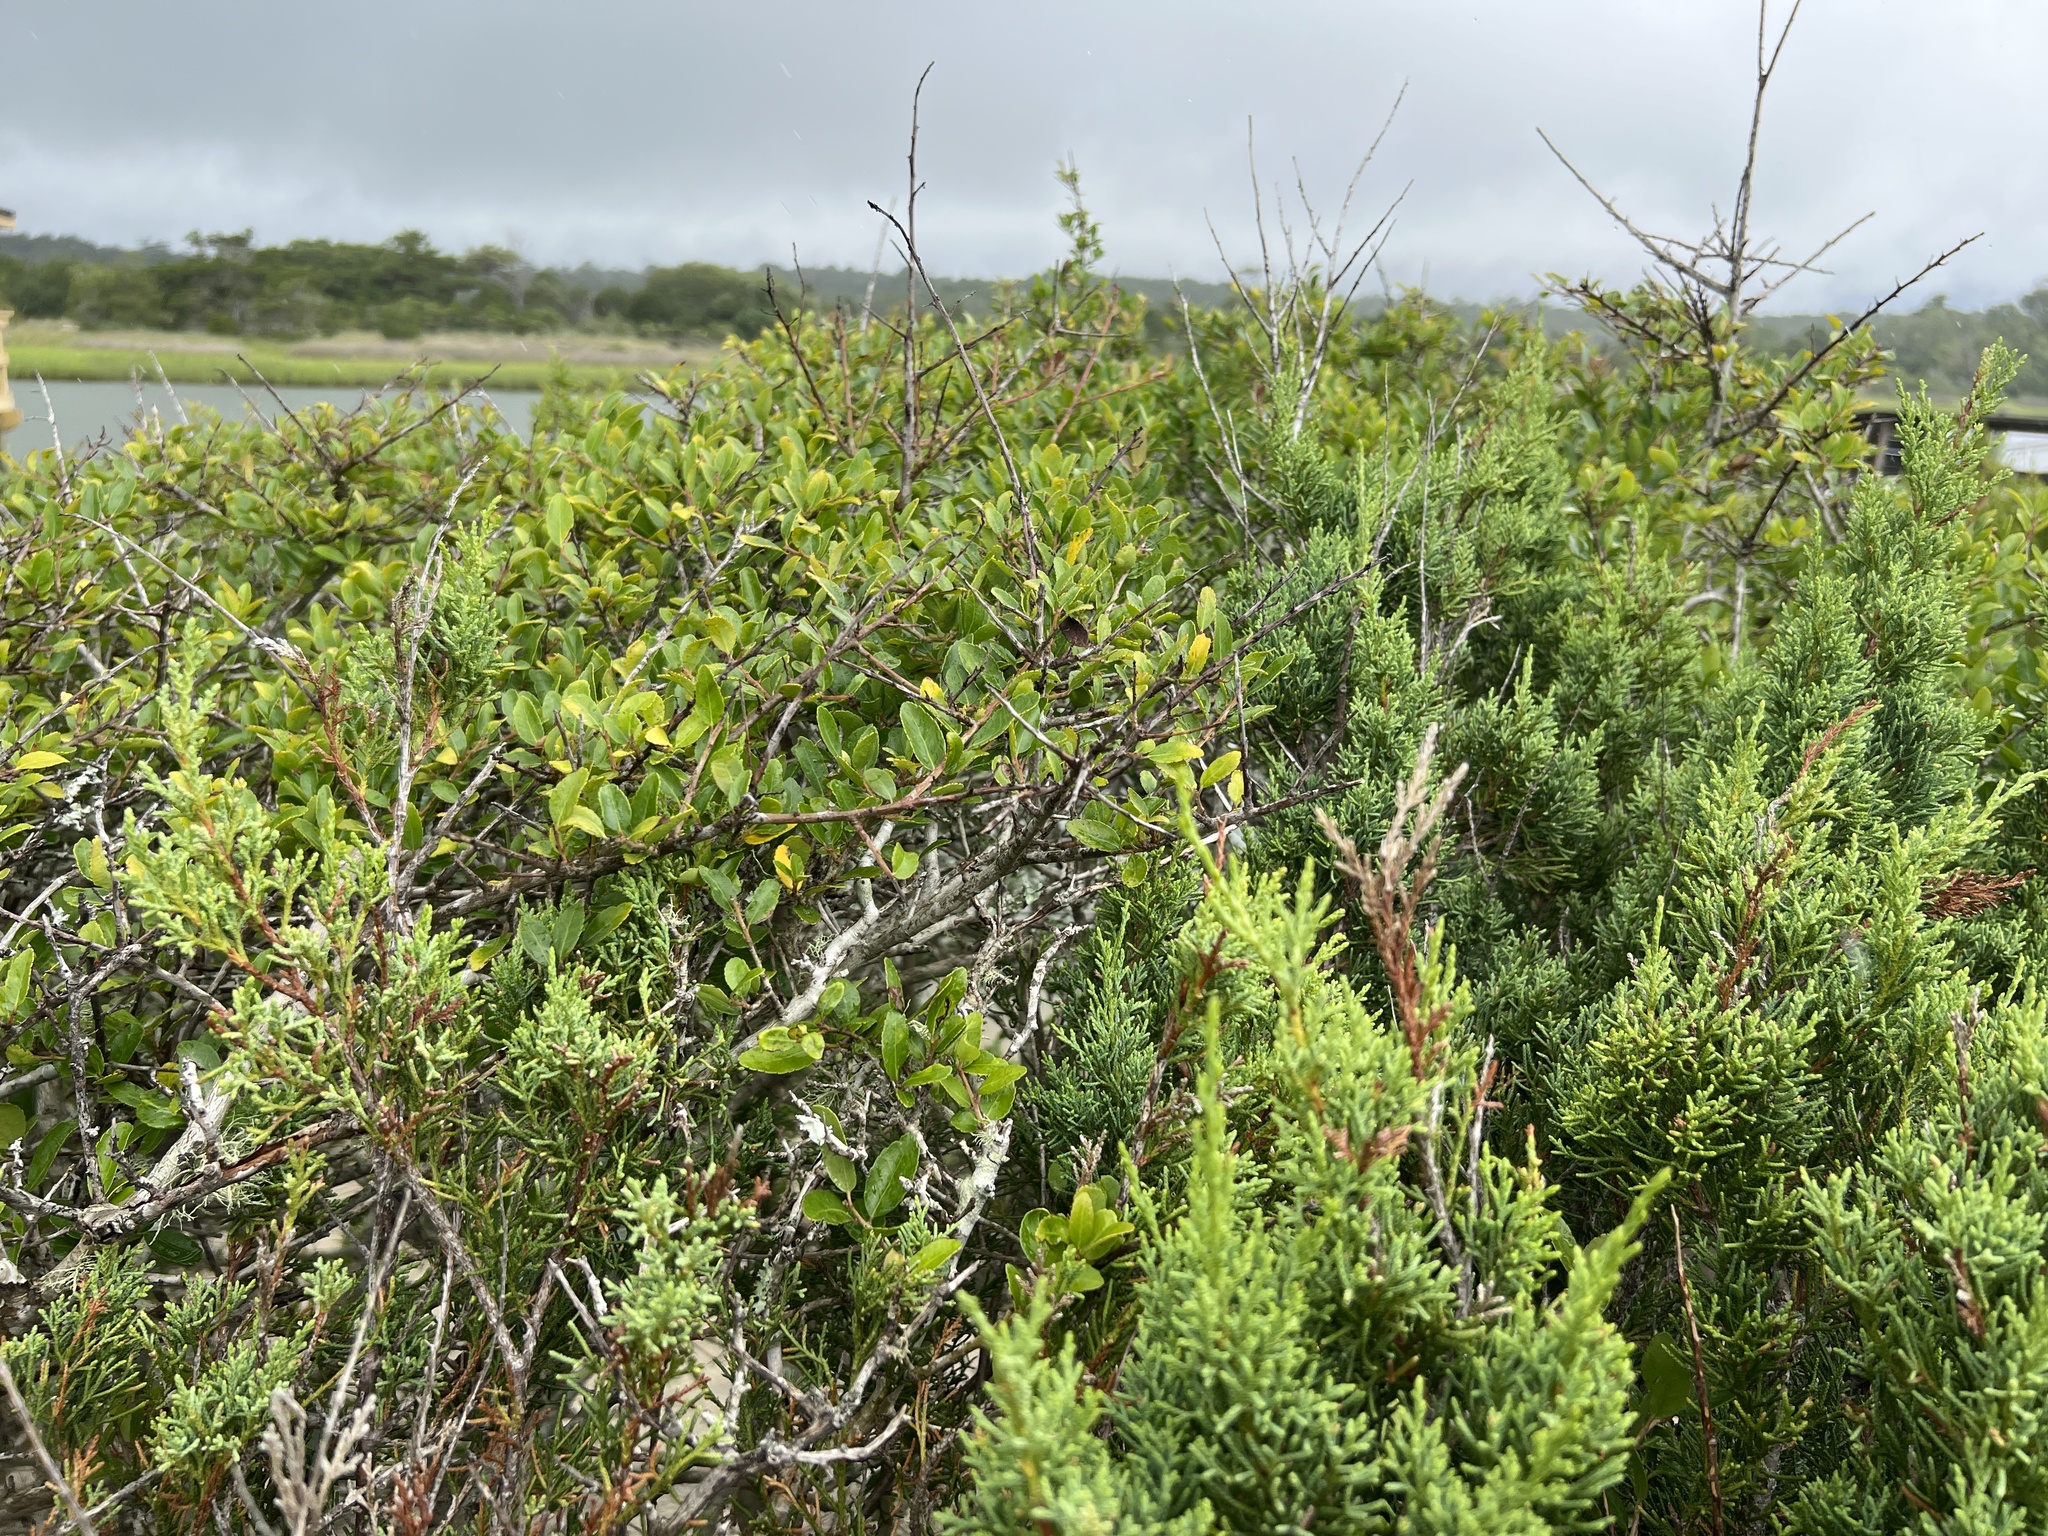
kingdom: Plantae
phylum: Tracheophyta
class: Magnoliopsida
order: Aquifoliales
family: Aquifoliaceae
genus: Ilex
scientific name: Ilex vomitoria
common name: Yaupon holly
